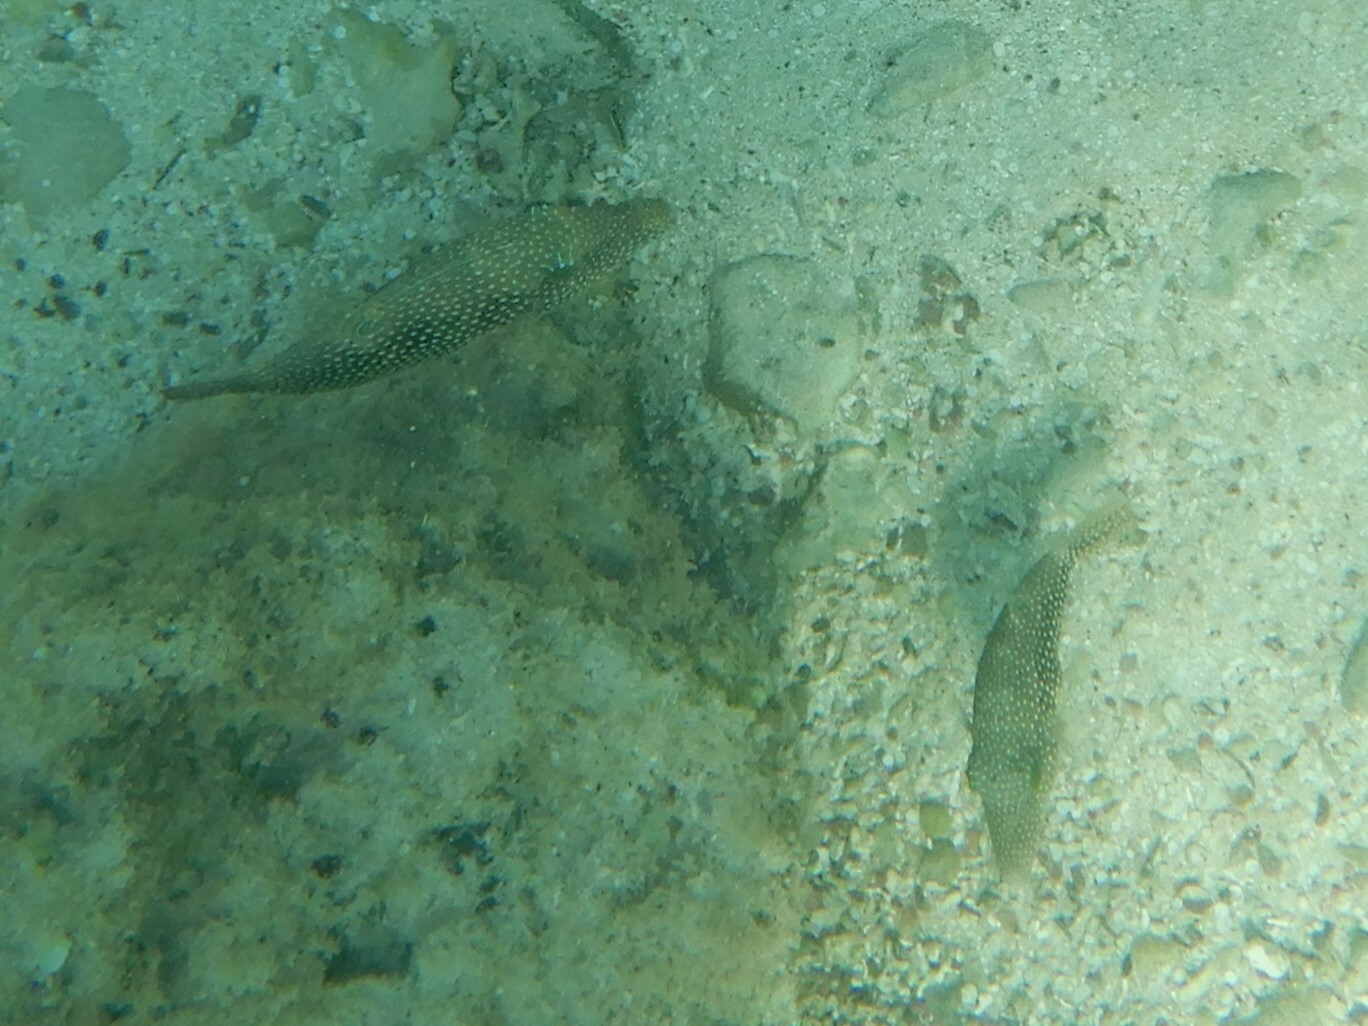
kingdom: Animalia
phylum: Chordata
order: Tetraodontiformes
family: Tetraodontidae
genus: Canthigaster
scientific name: Canthigaster margaritata
